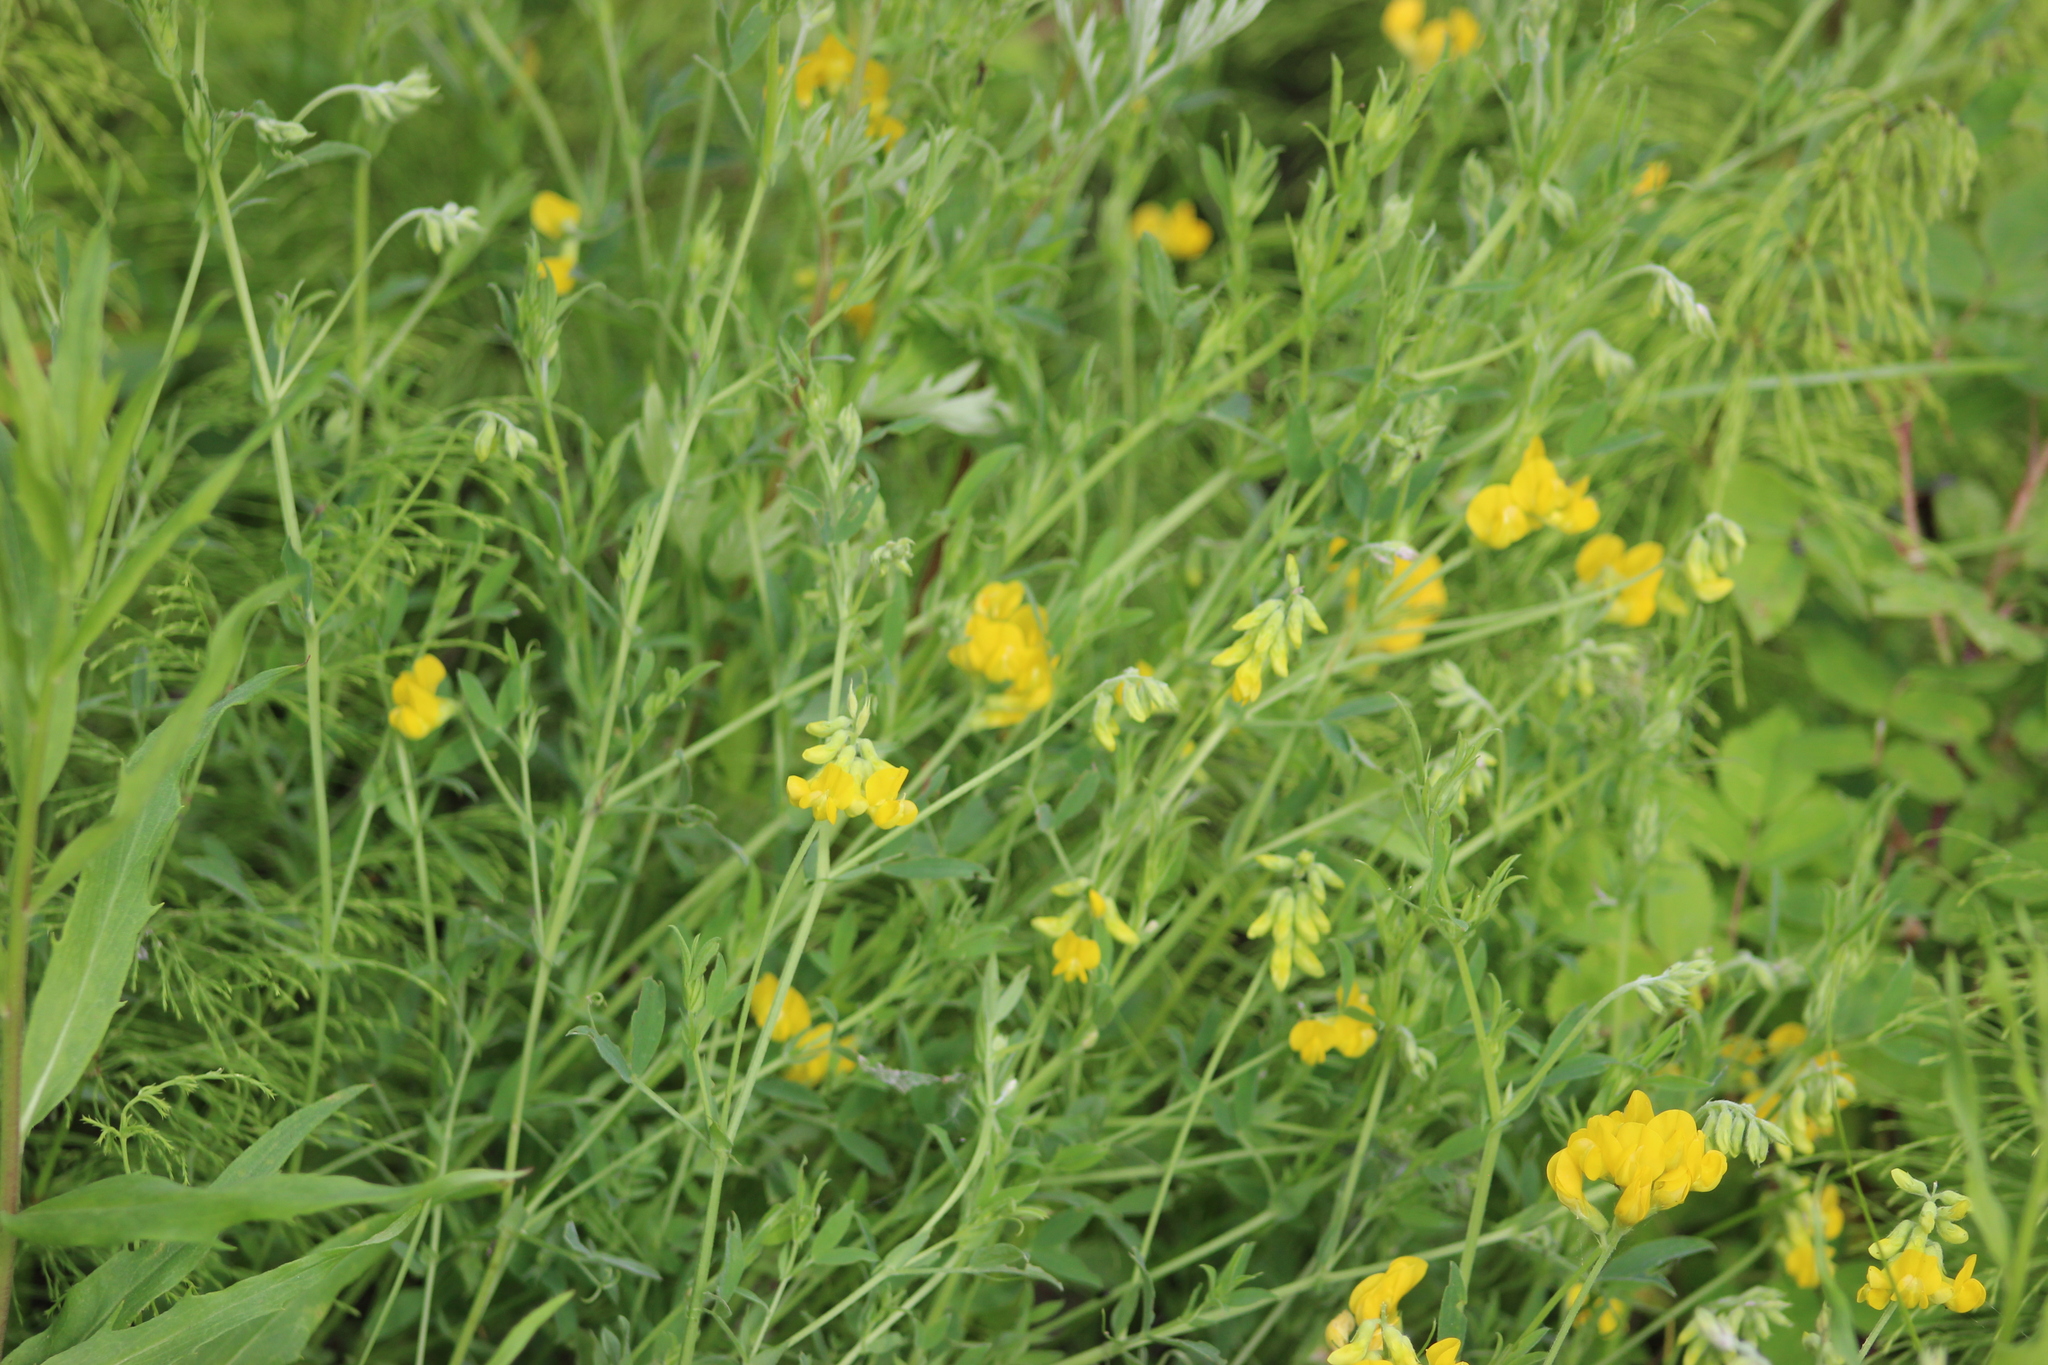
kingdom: Plantae
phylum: Tracheophyta
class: Magnoliopsida
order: Fabales
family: Fabaceae
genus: Lathyrus
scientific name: Lathyrus pratensis
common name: Meadow vetchling
